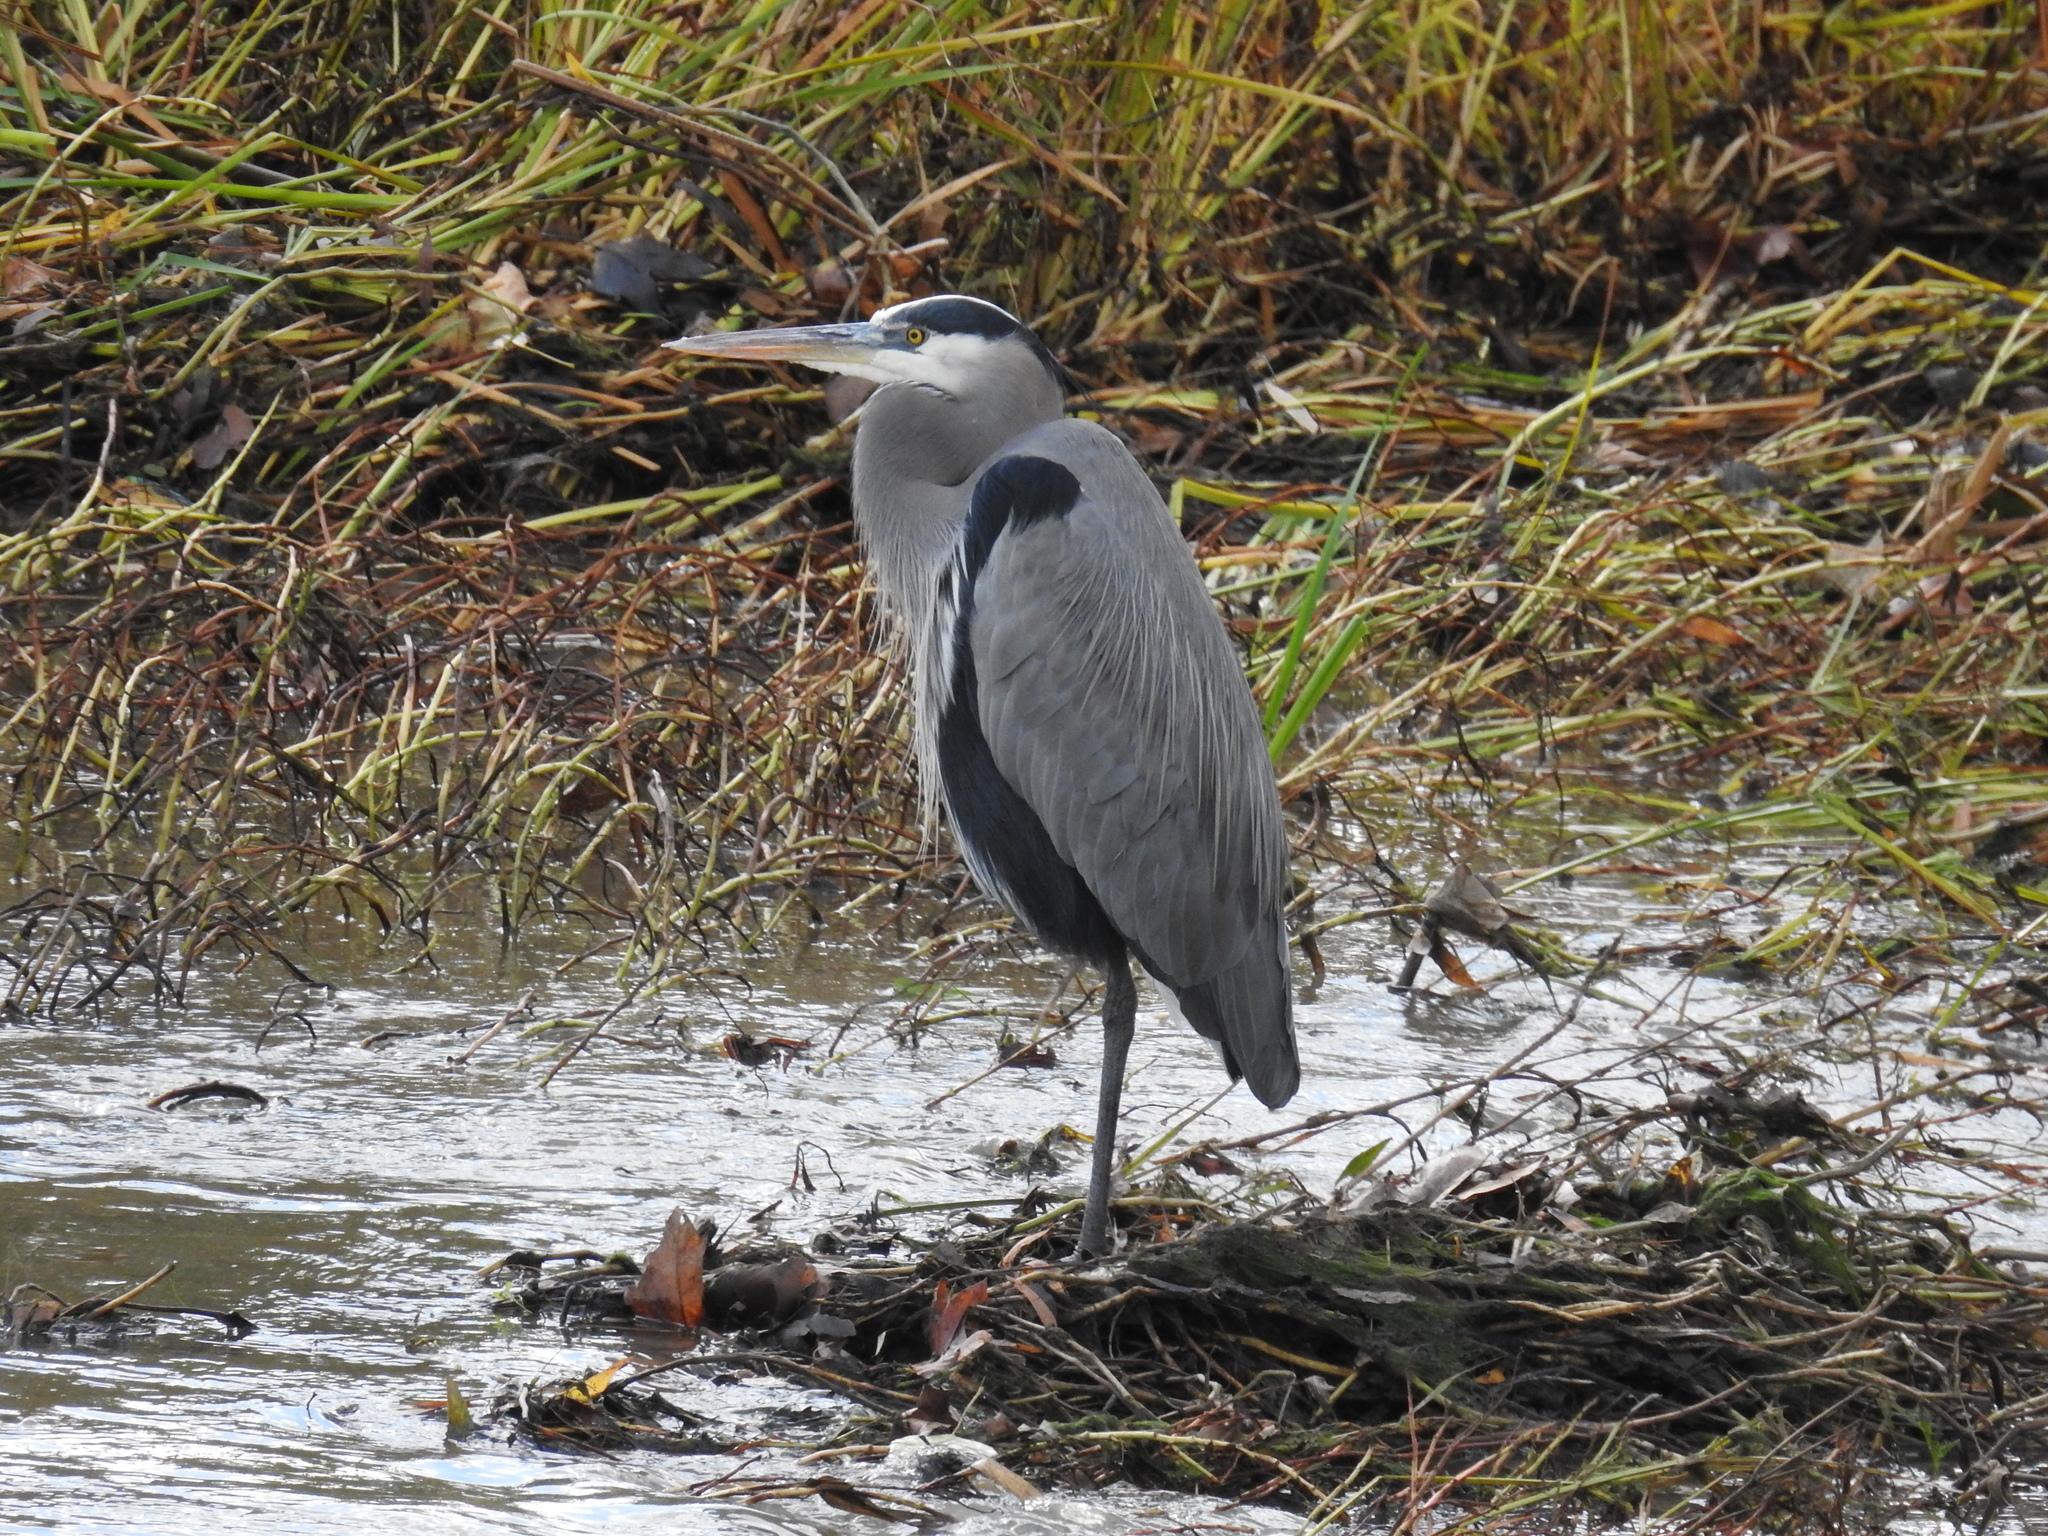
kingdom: Animalia
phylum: Chordata
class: Aves
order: Pelecaniformes
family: Ardeidae
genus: Ardea
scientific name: Ardea herodias
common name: Great blue heron
